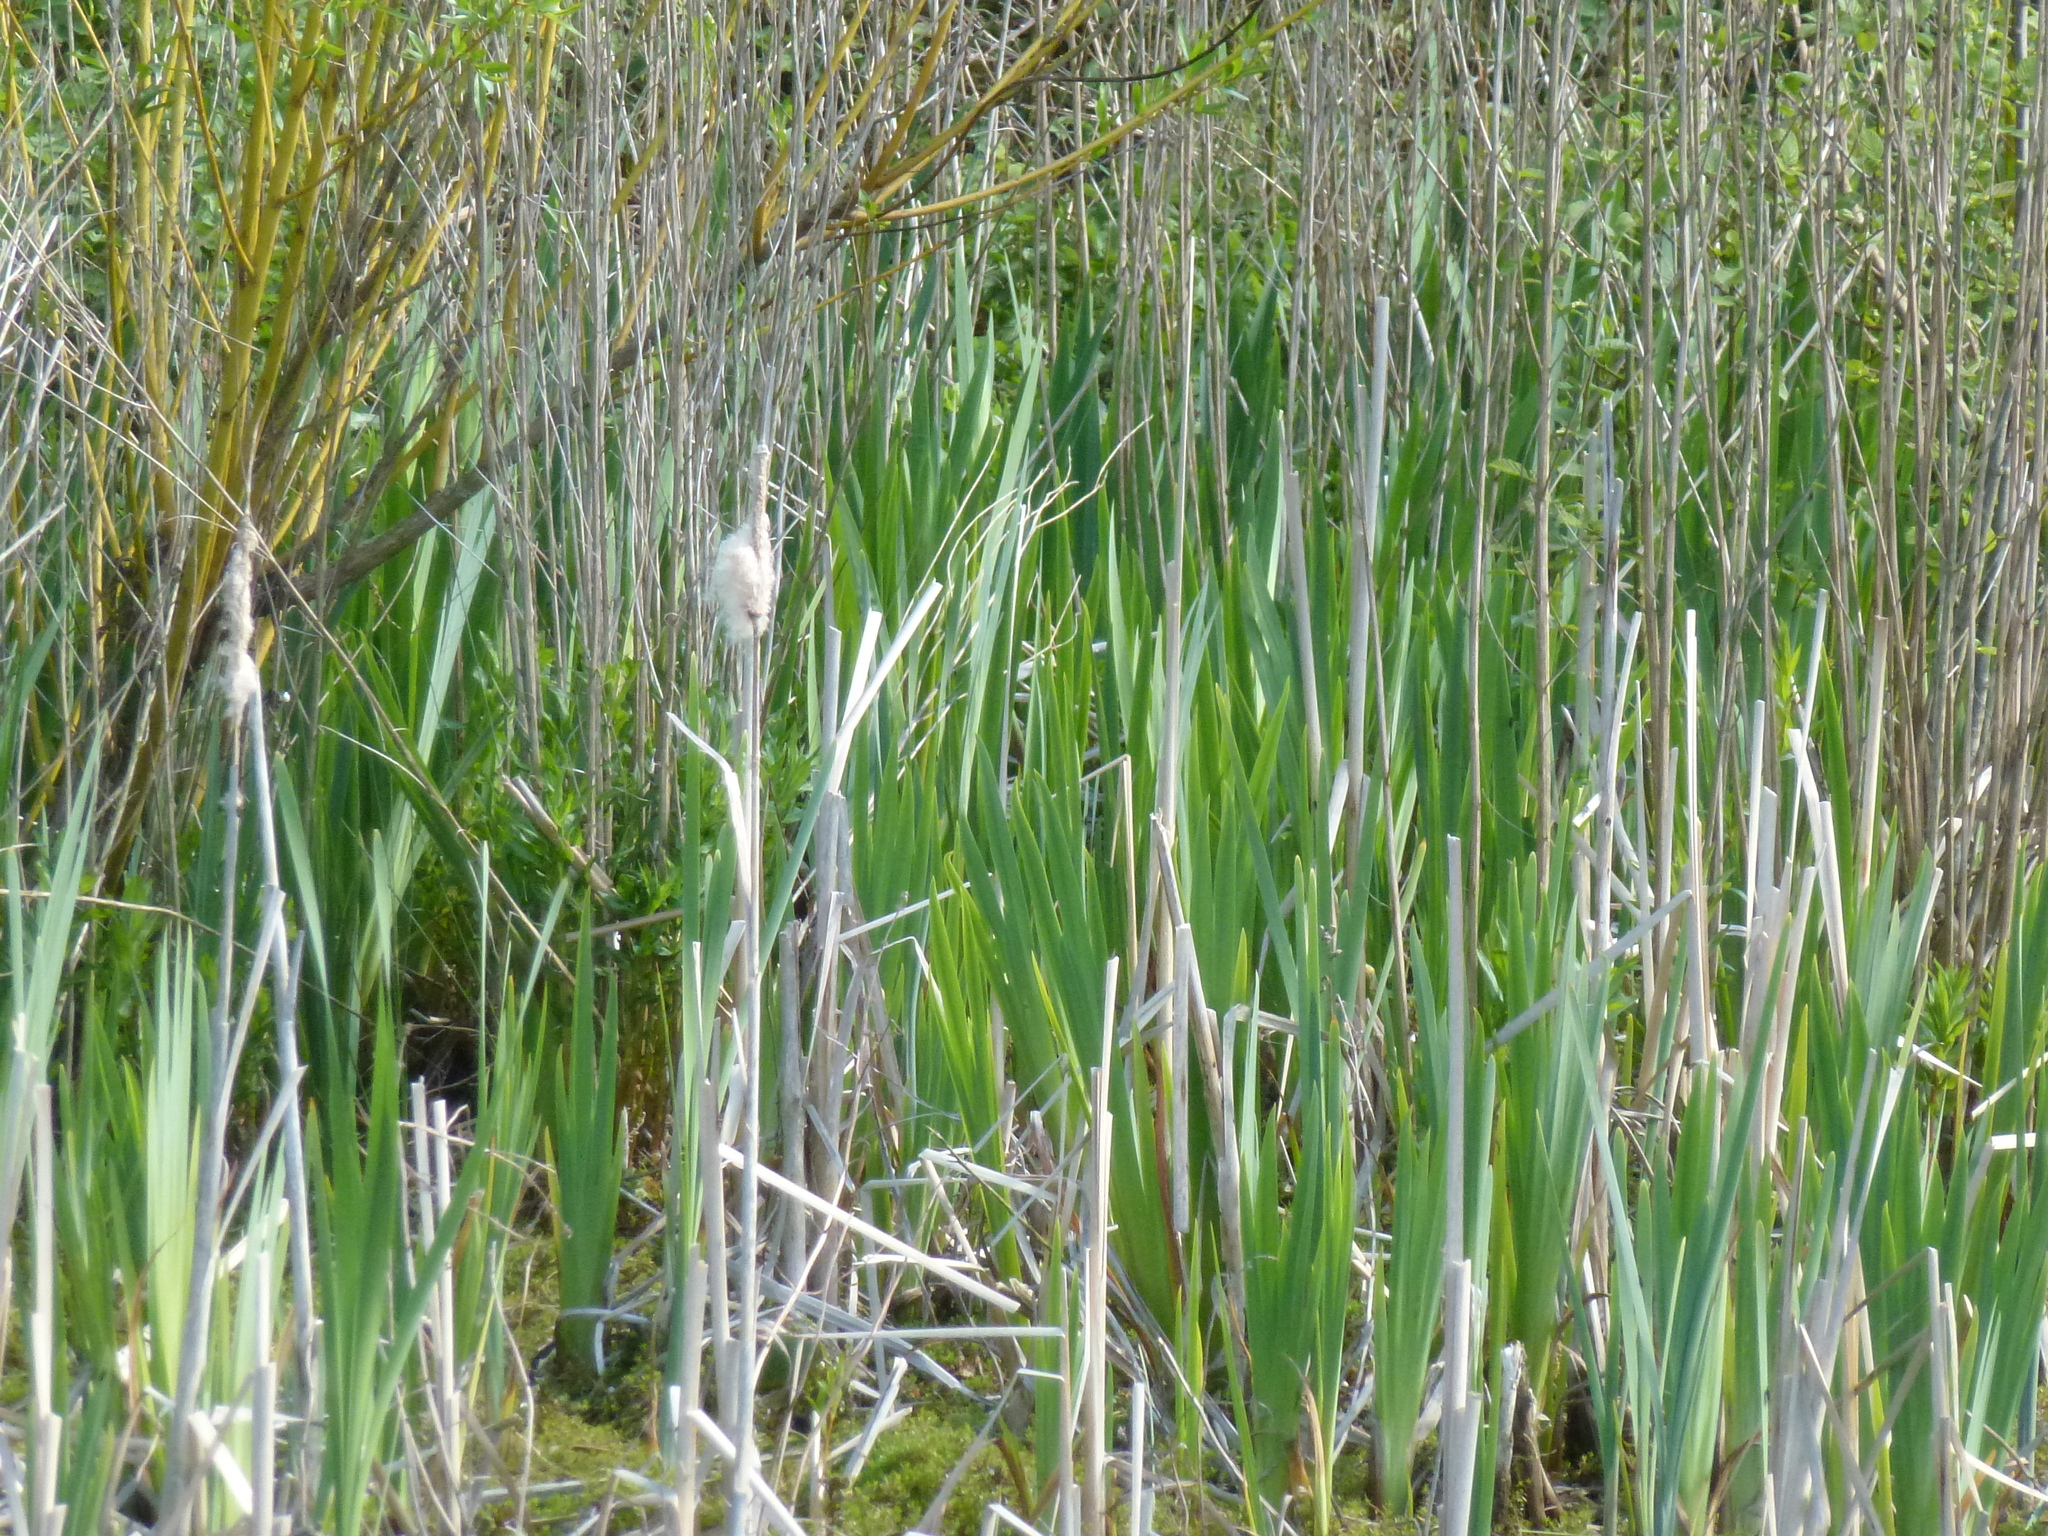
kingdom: Plantae
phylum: Tracheophyta
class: Liliopsida
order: Poales
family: Typhaceae
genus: Typha
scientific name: Typha latifolia
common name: Broadleaf cattail
